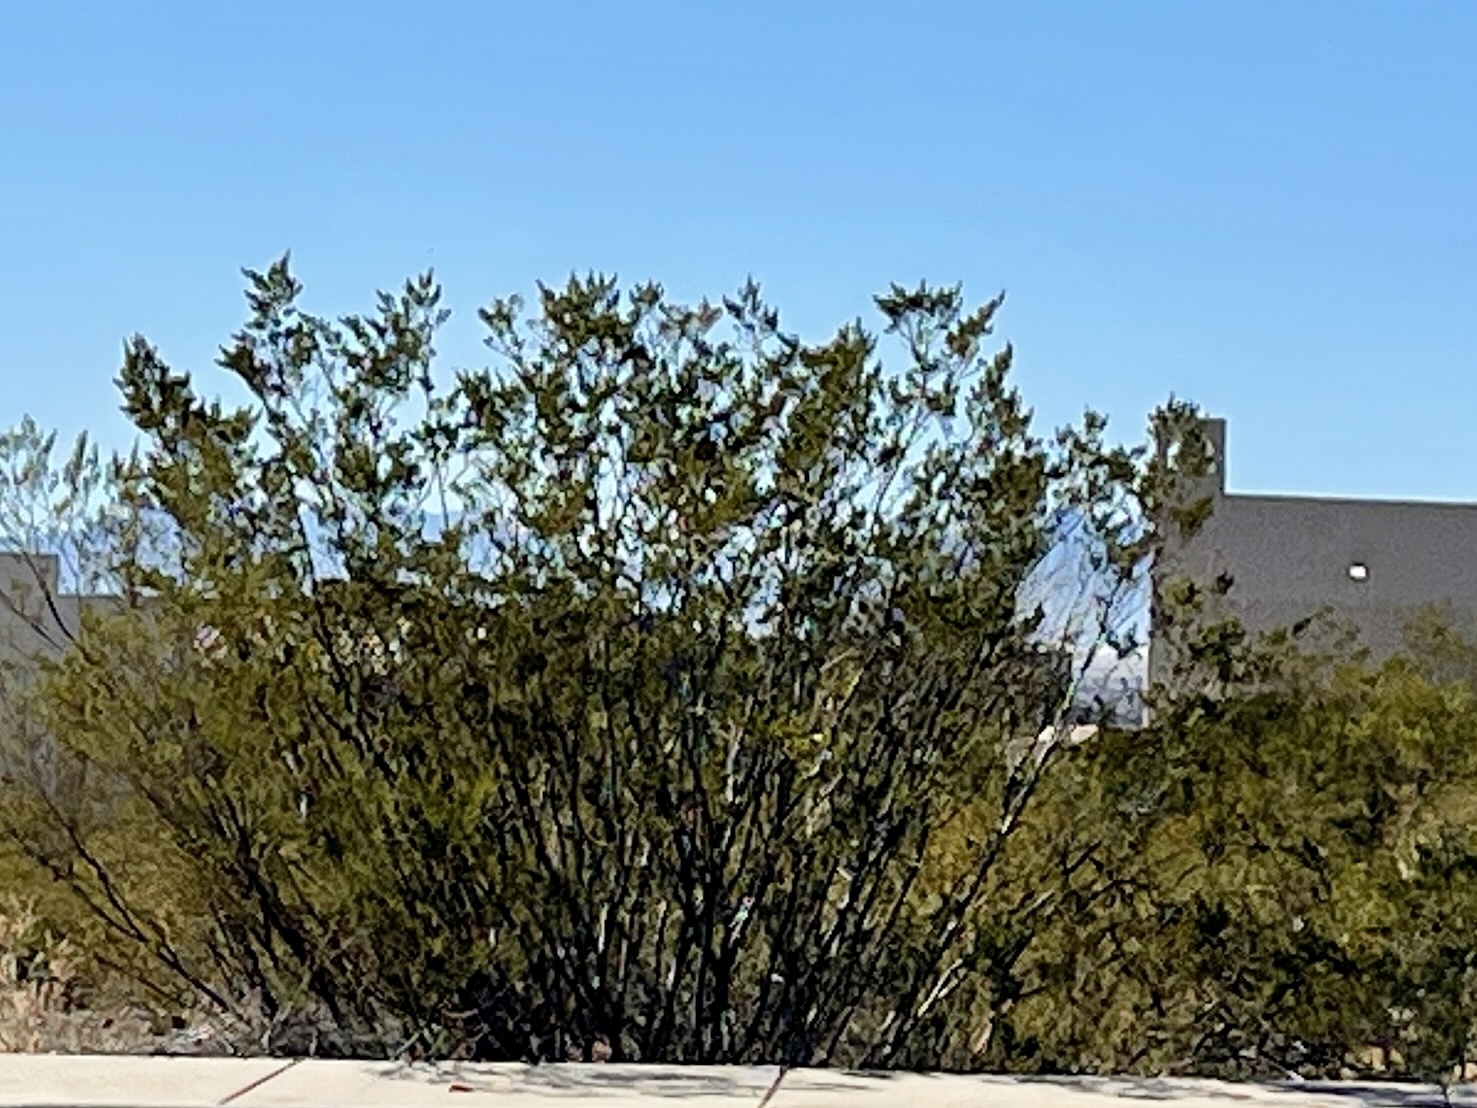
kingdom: Plantae
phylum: Tracheophyta
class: Magnoliopsida
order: Zygophyllales
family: Zygophyllaceae
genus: Larrea
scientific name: Larrea tridentata
